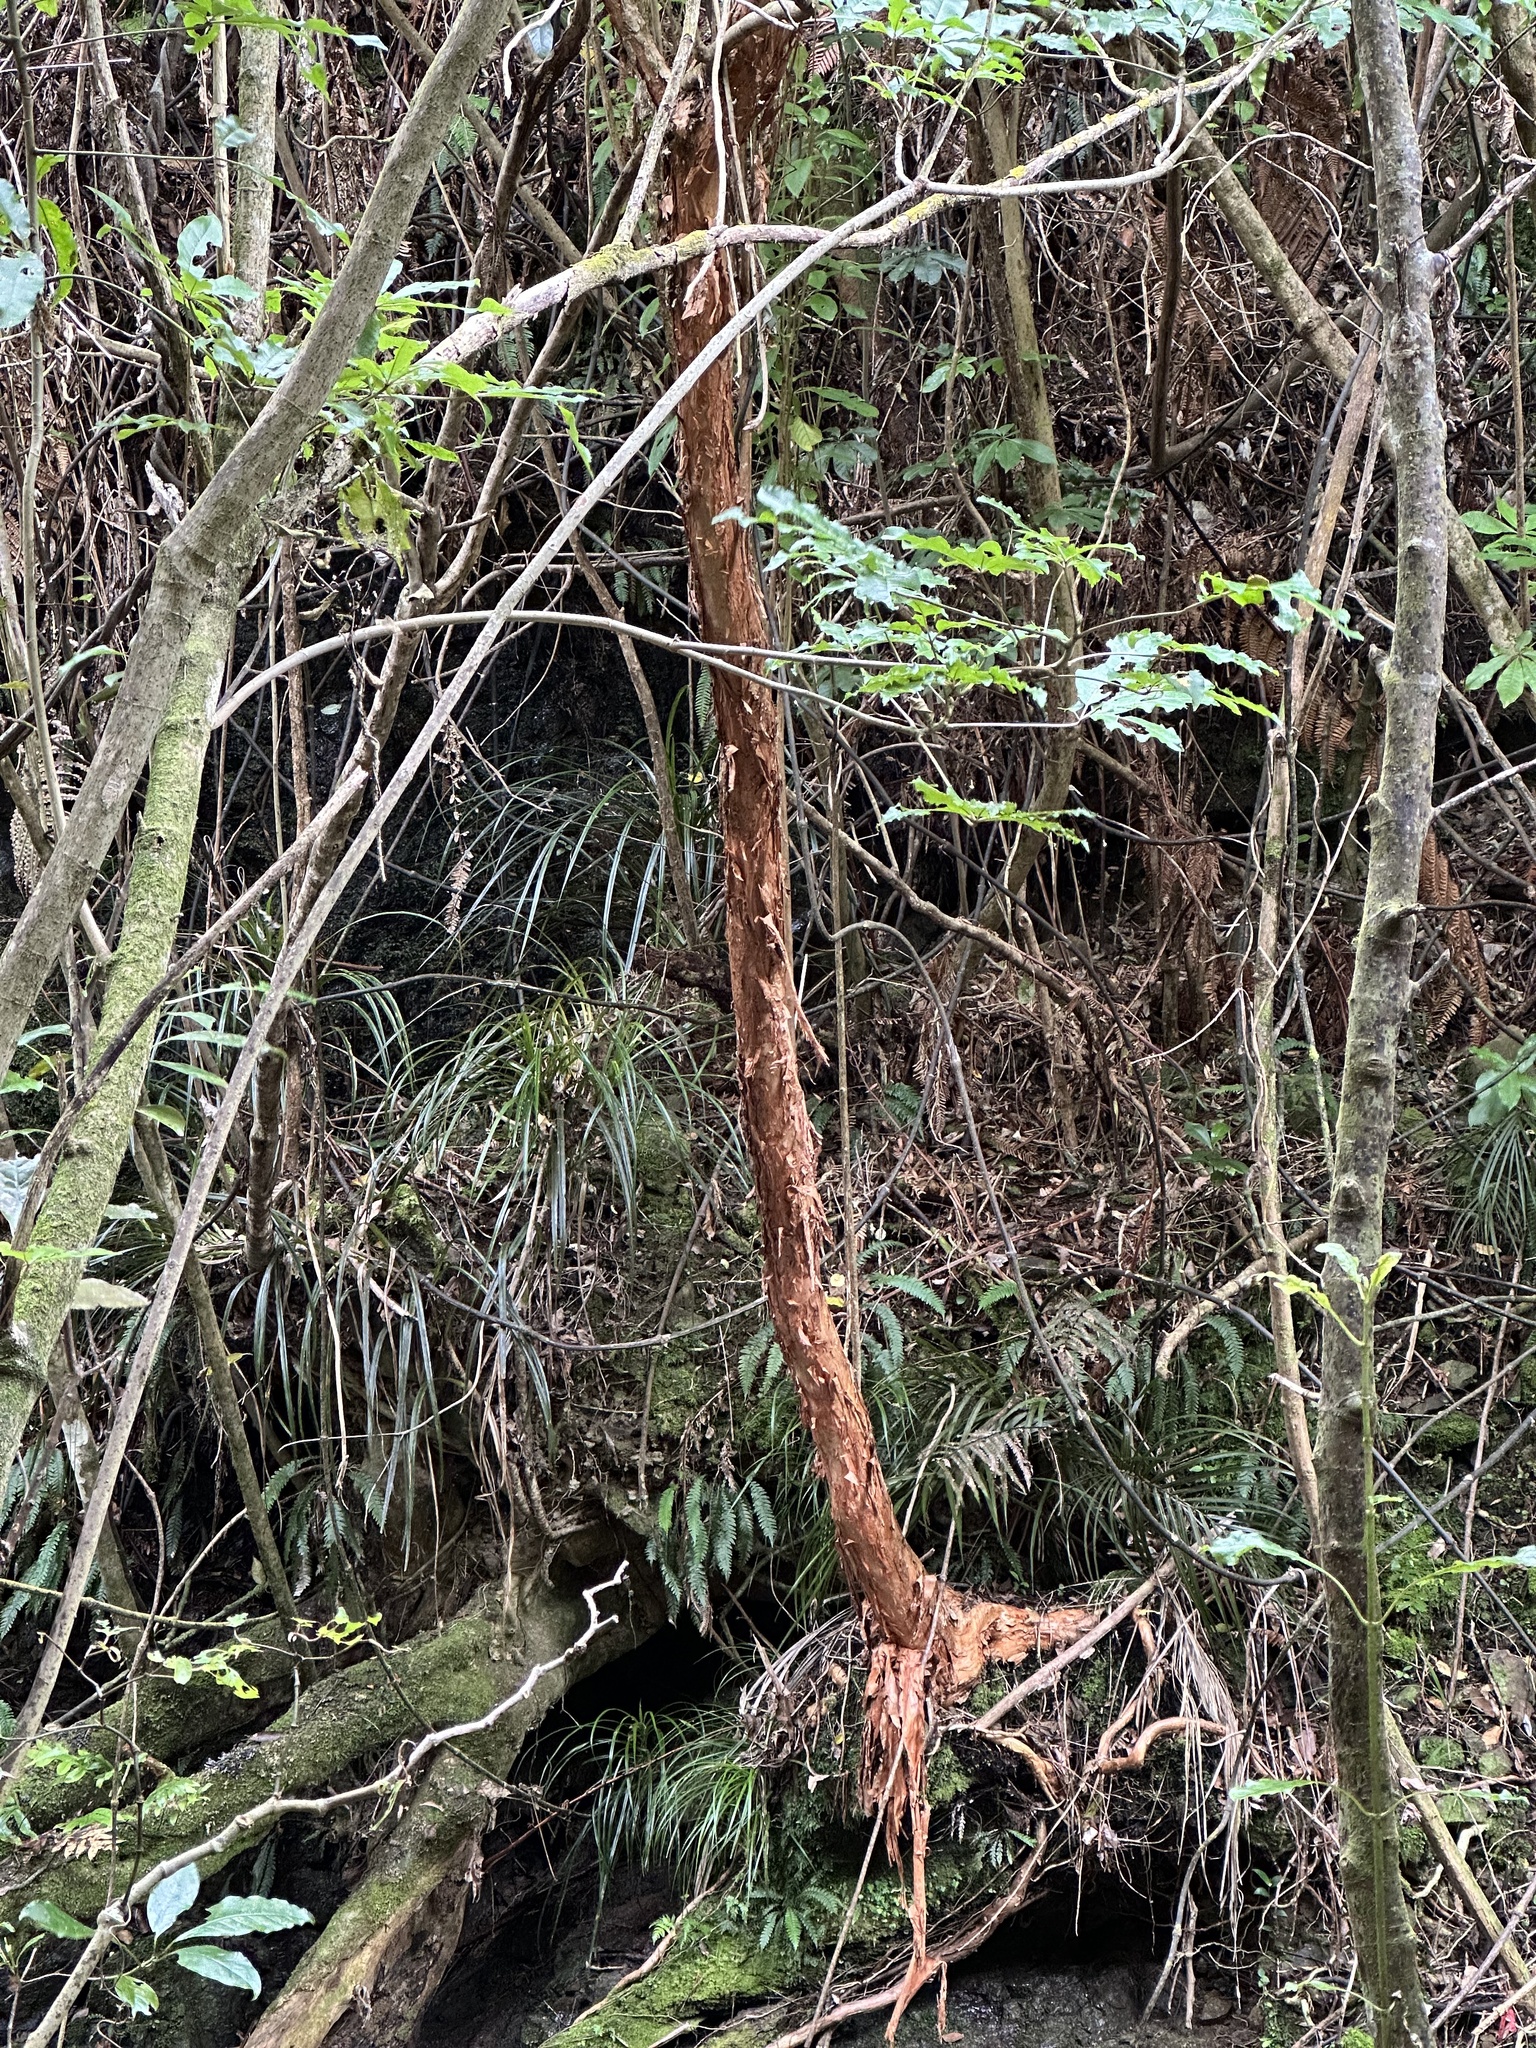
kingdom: Plantae
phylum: Tracheophyta
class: Magnoliopsida
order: Myrtales
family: Onagraceae
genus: Fuchsia
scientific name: Fuchsia excorticata
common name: Tree fuchsia
